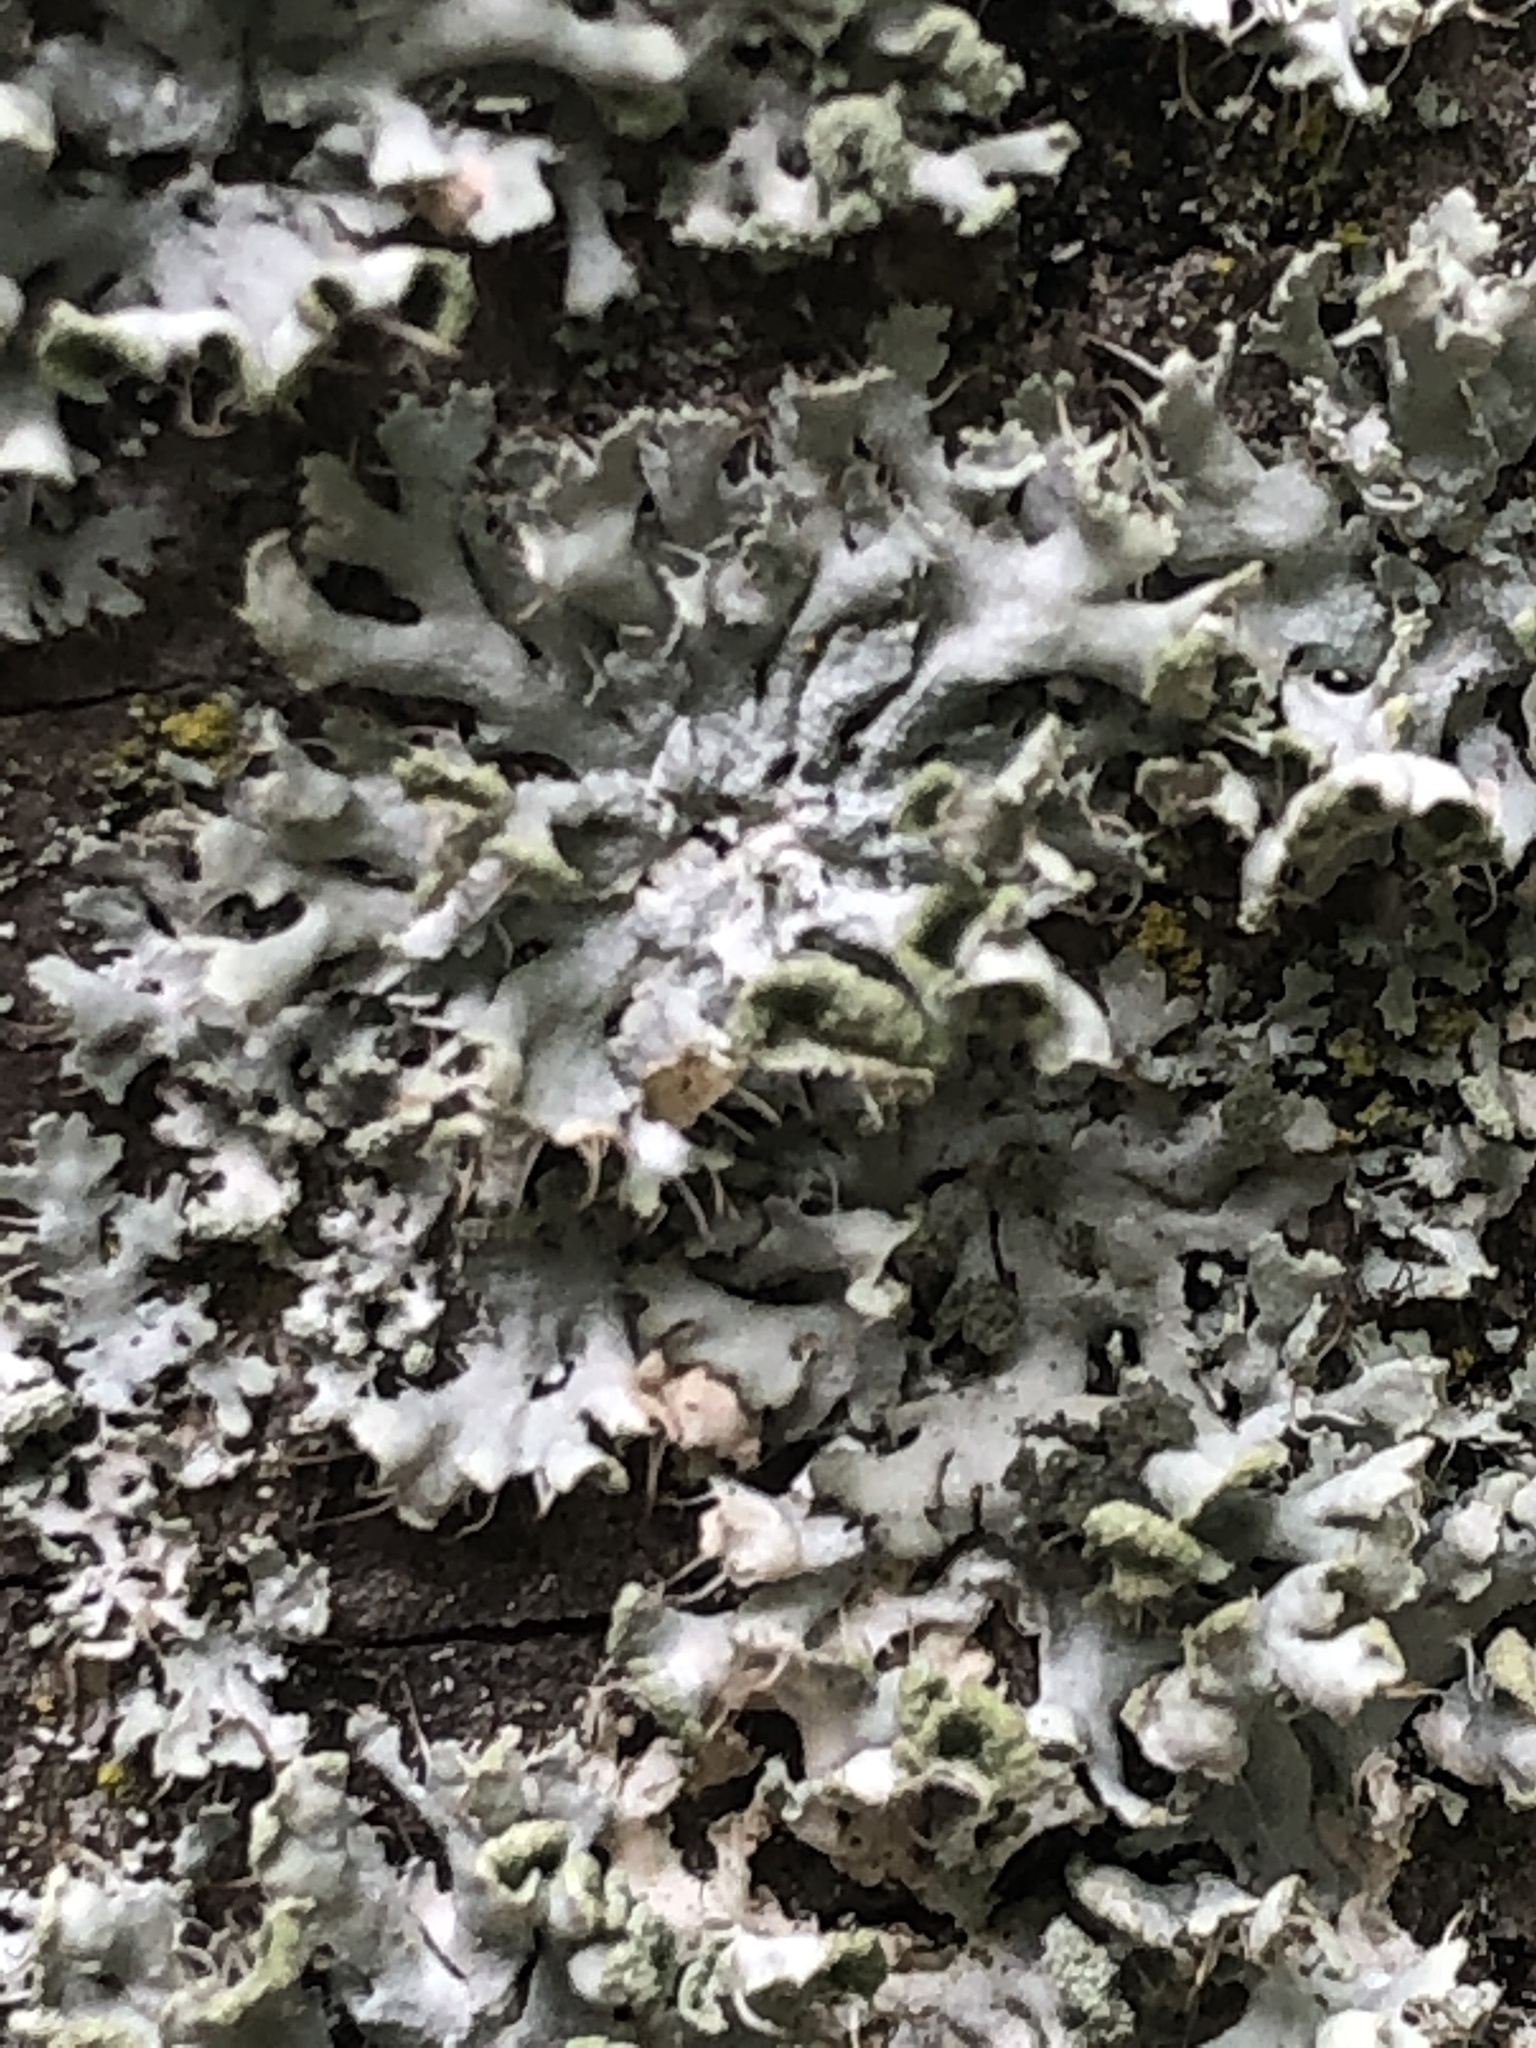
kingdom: Fungi
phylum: Ascomycota
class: Lecanoromycetes
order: Caliciales
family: Physciaceae
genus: Physcia
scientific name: Physcia adscendens
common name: Hooded rosette lichen
